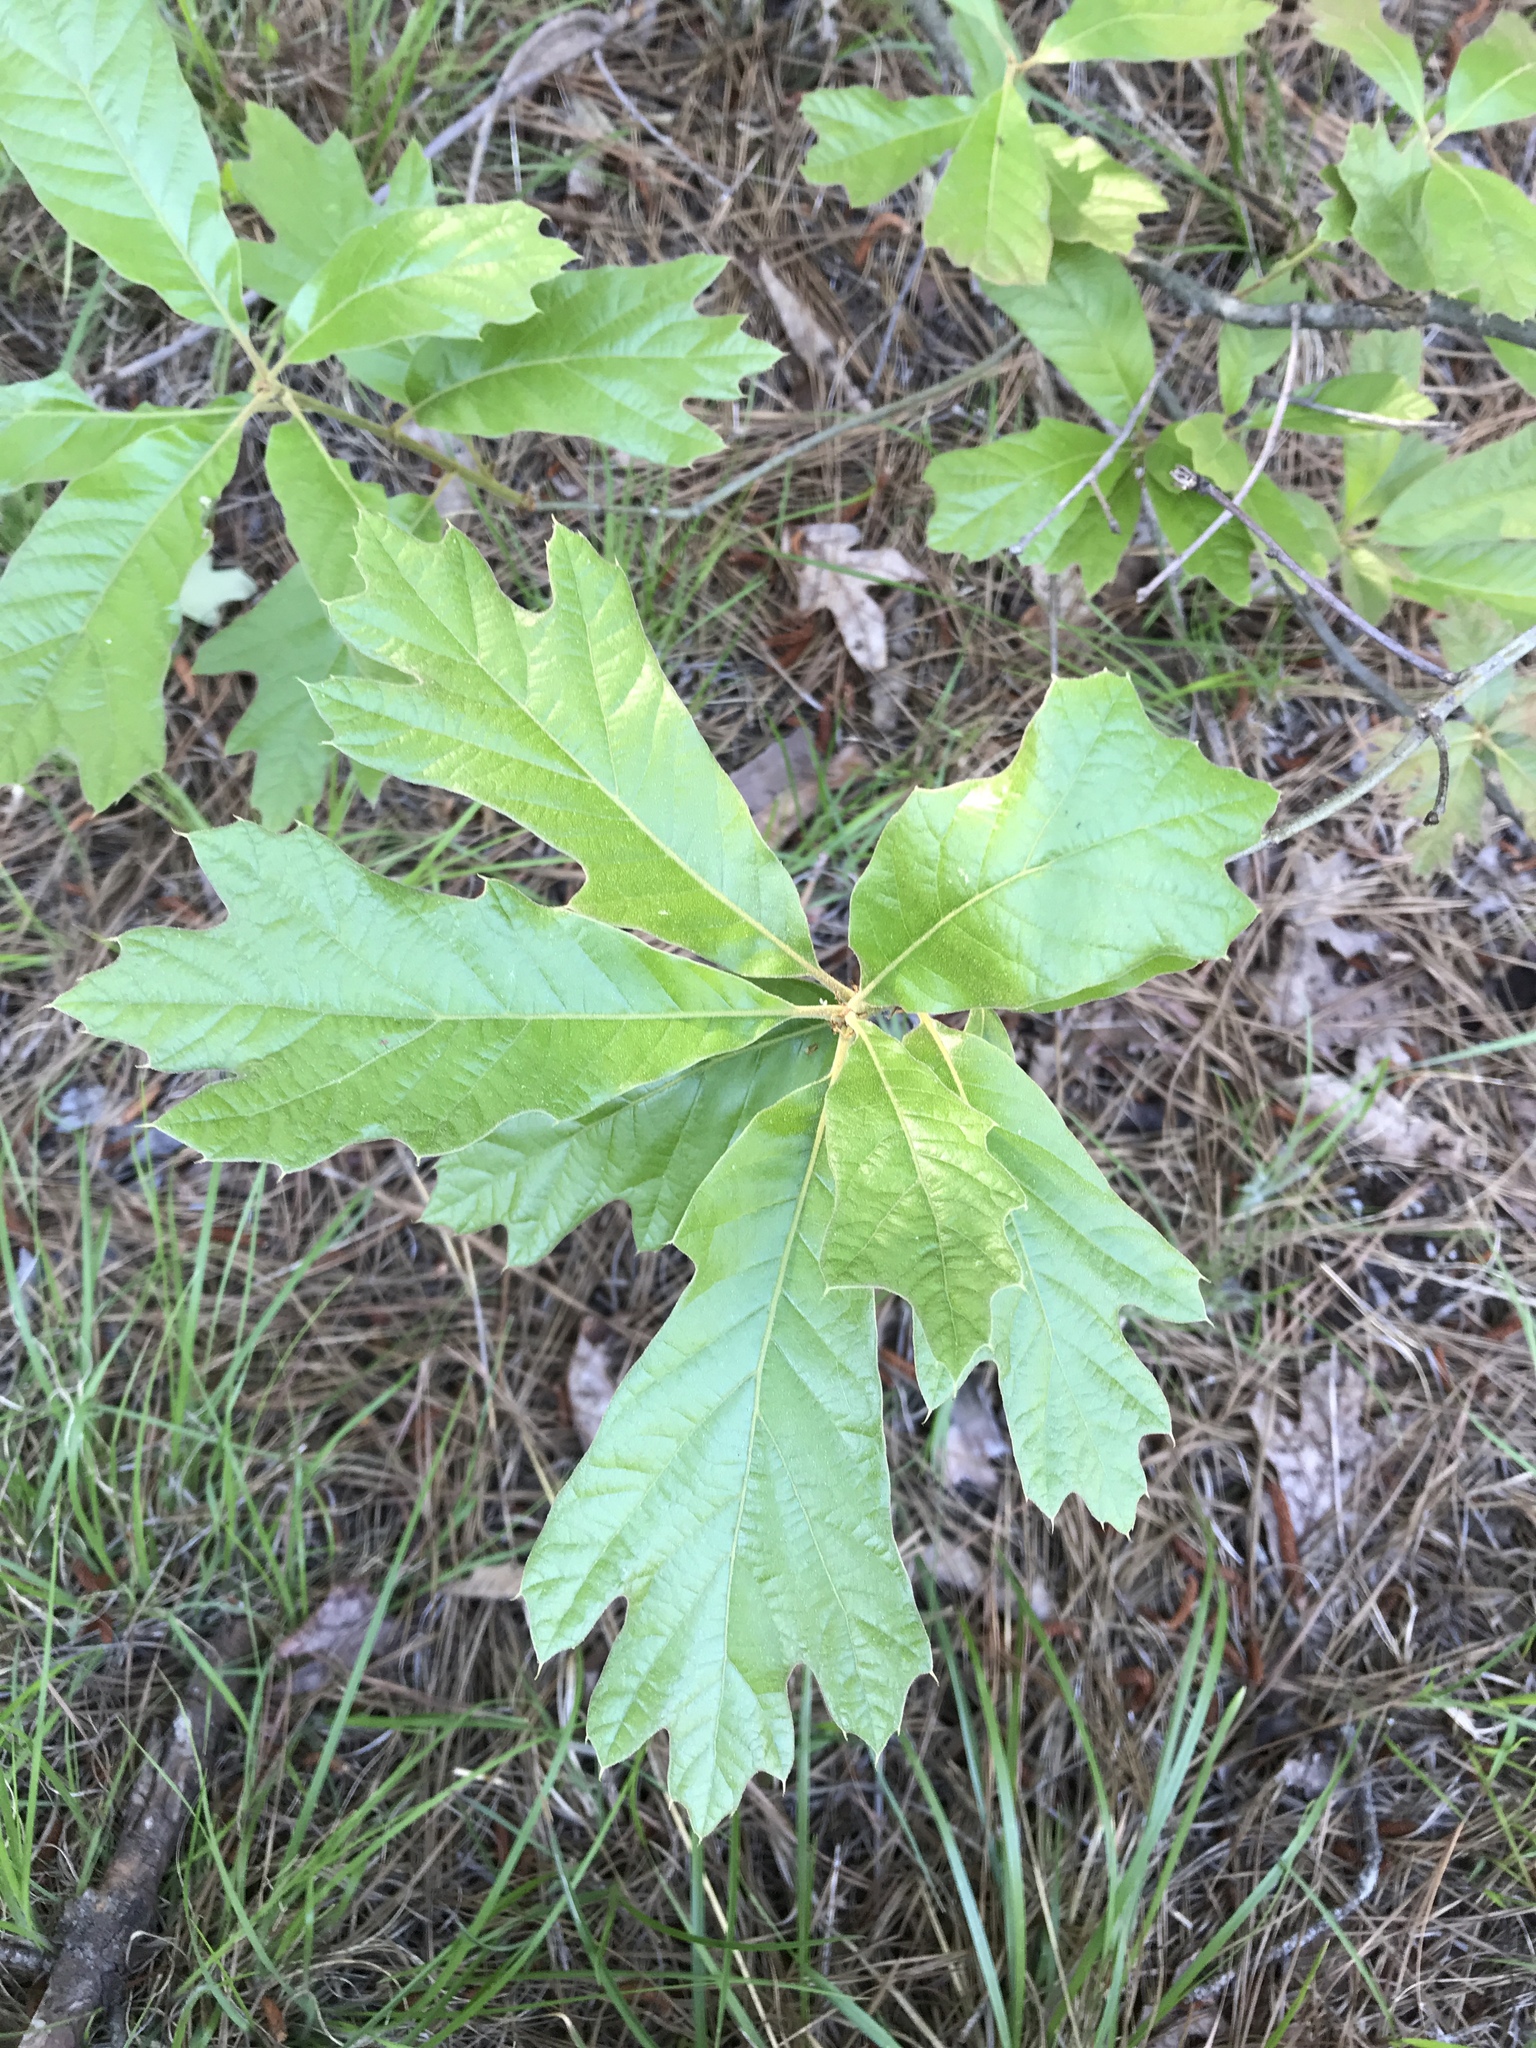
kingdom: Plantae
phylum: Tracheophyta
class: Magnoliopsida
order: Fagales
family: Fagaceae
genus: Quercus
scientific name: Quercus falcata
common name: Southern red oak
